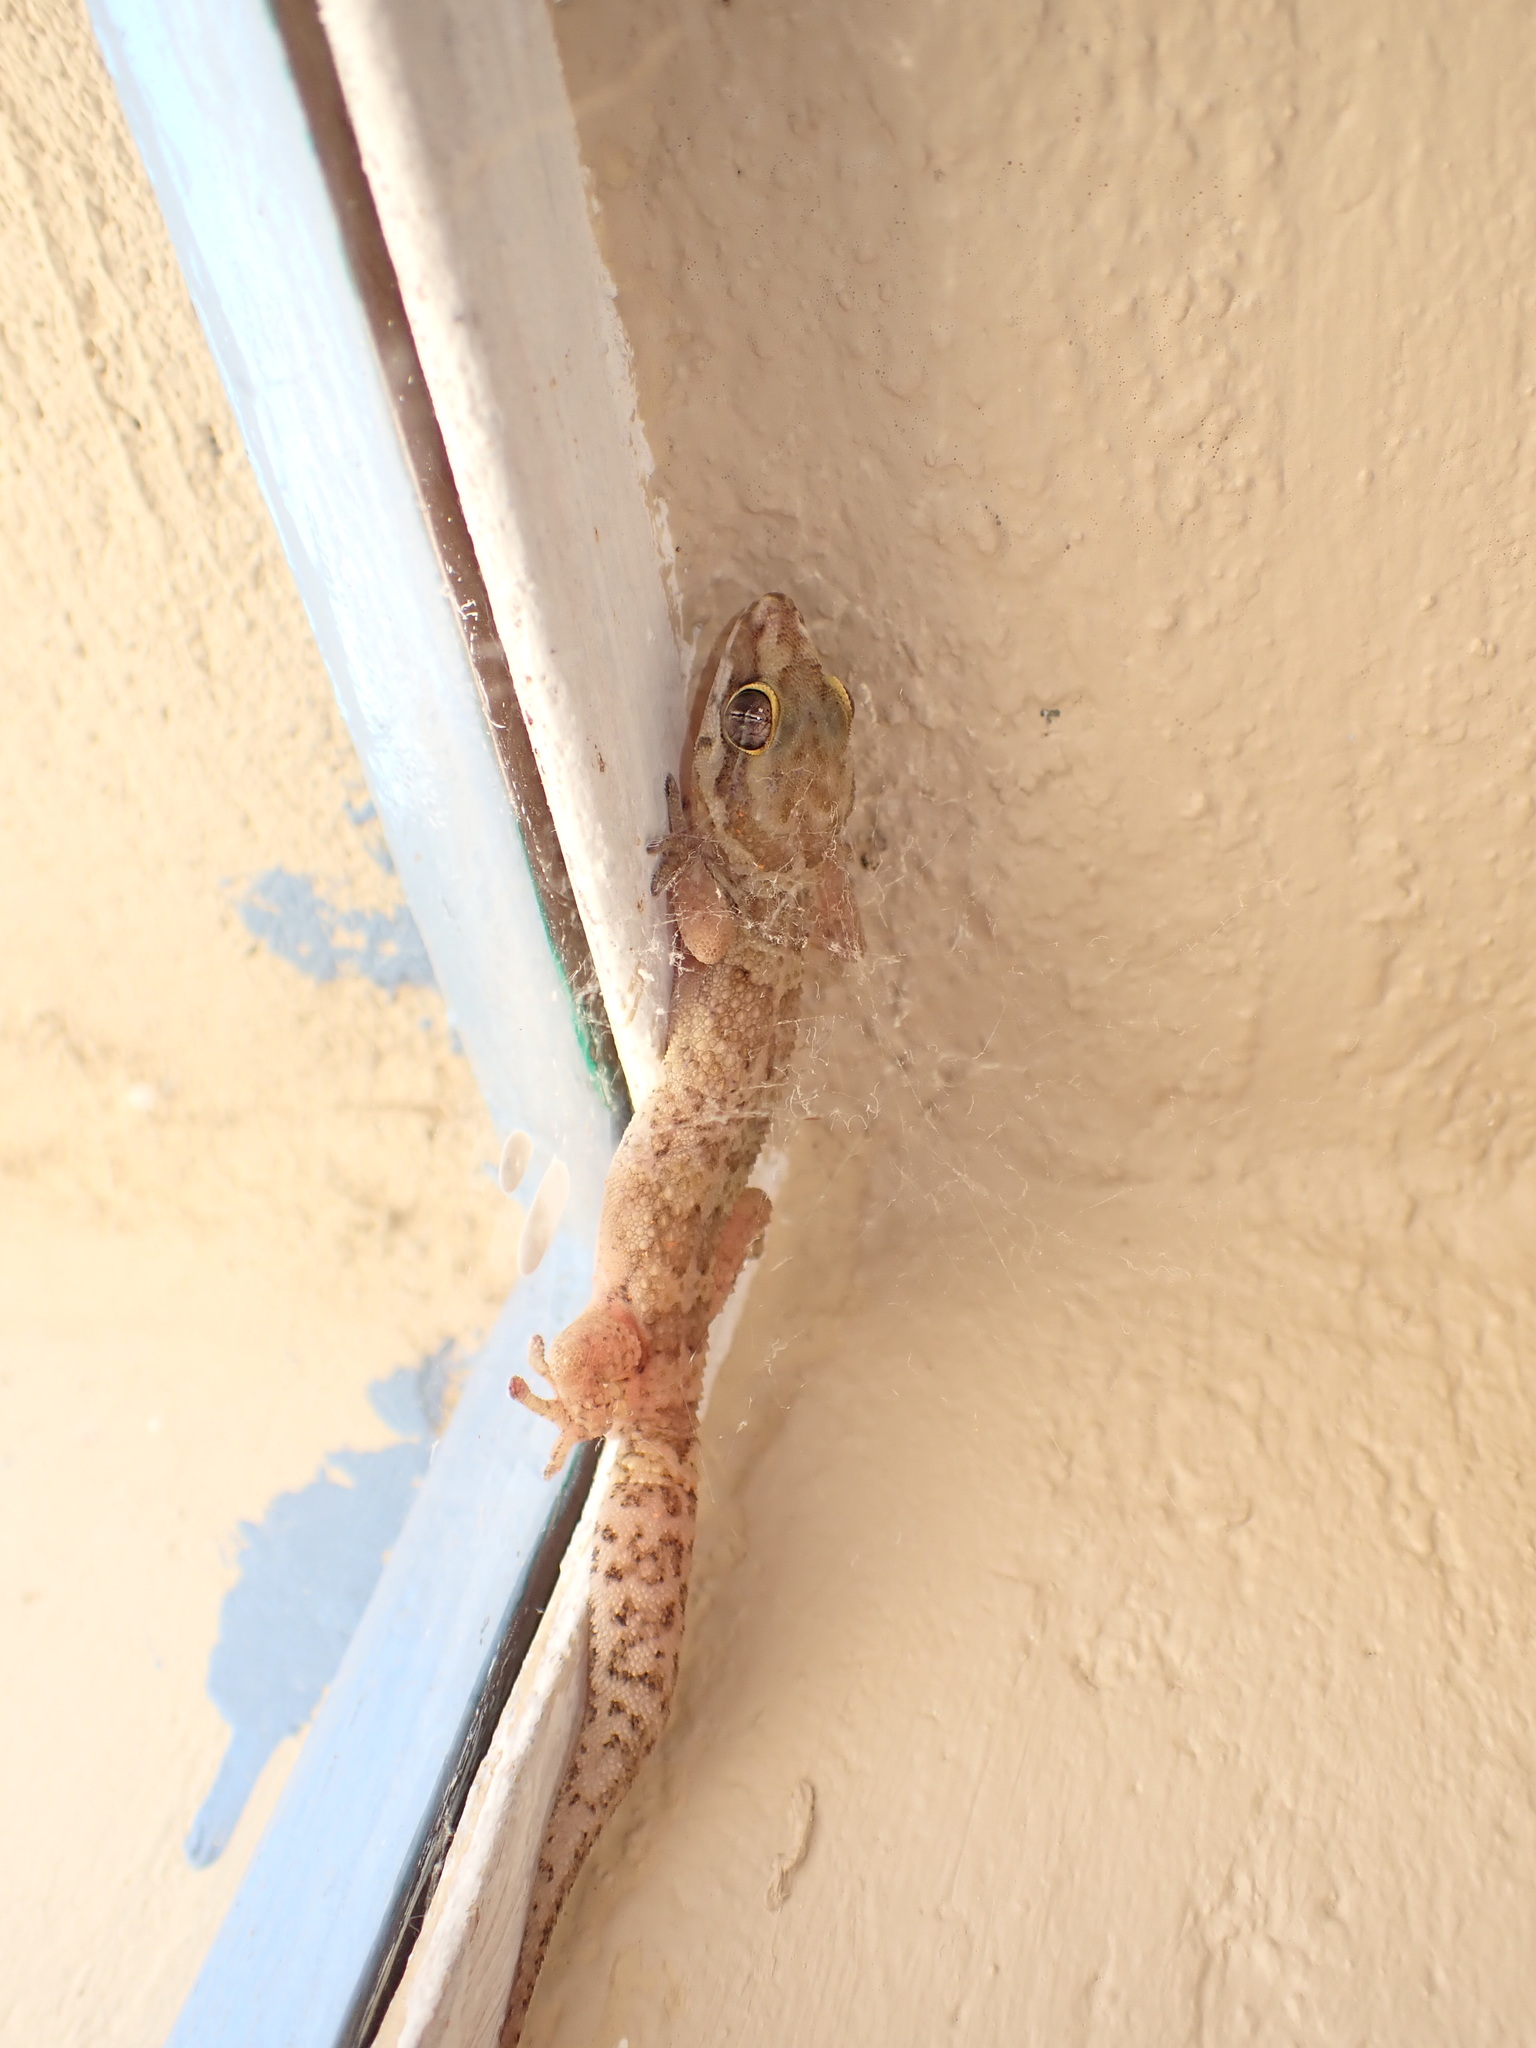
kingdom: Animalia
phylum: Chordata
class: Squamata
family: Gekkonidae
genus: Pachydactylus
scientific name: Pachydactylus formosus
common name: Southern rough gecko
